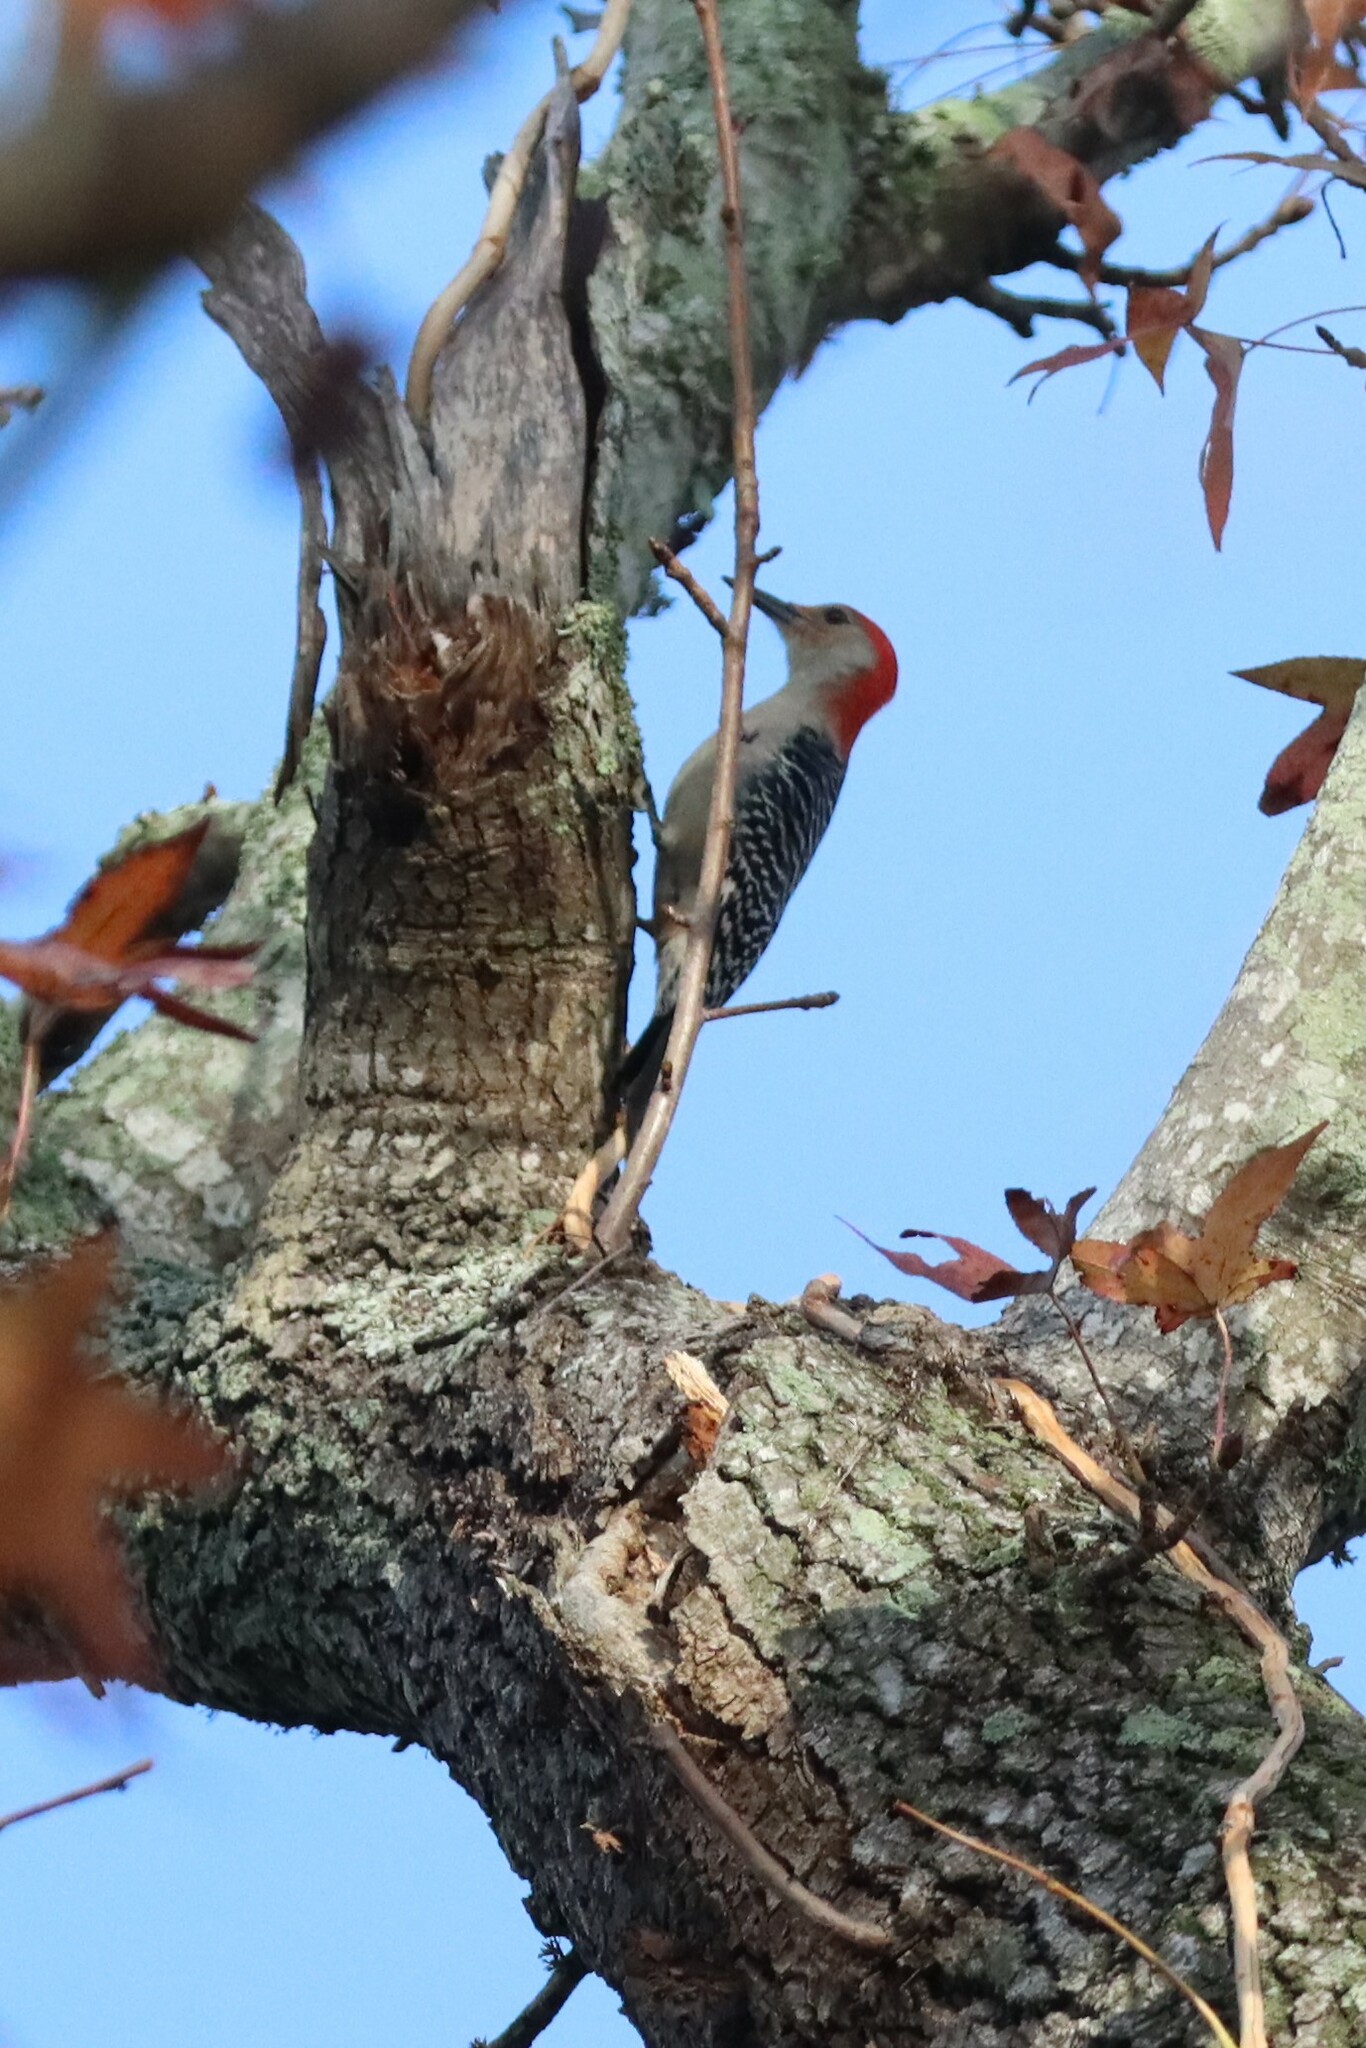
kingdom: Animalia
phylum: Chordata
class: Aves
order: Piciformes
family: Picidae
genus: Melanerpes
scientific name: Melanerpes carolinus
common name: Red-bellied woodpecker
